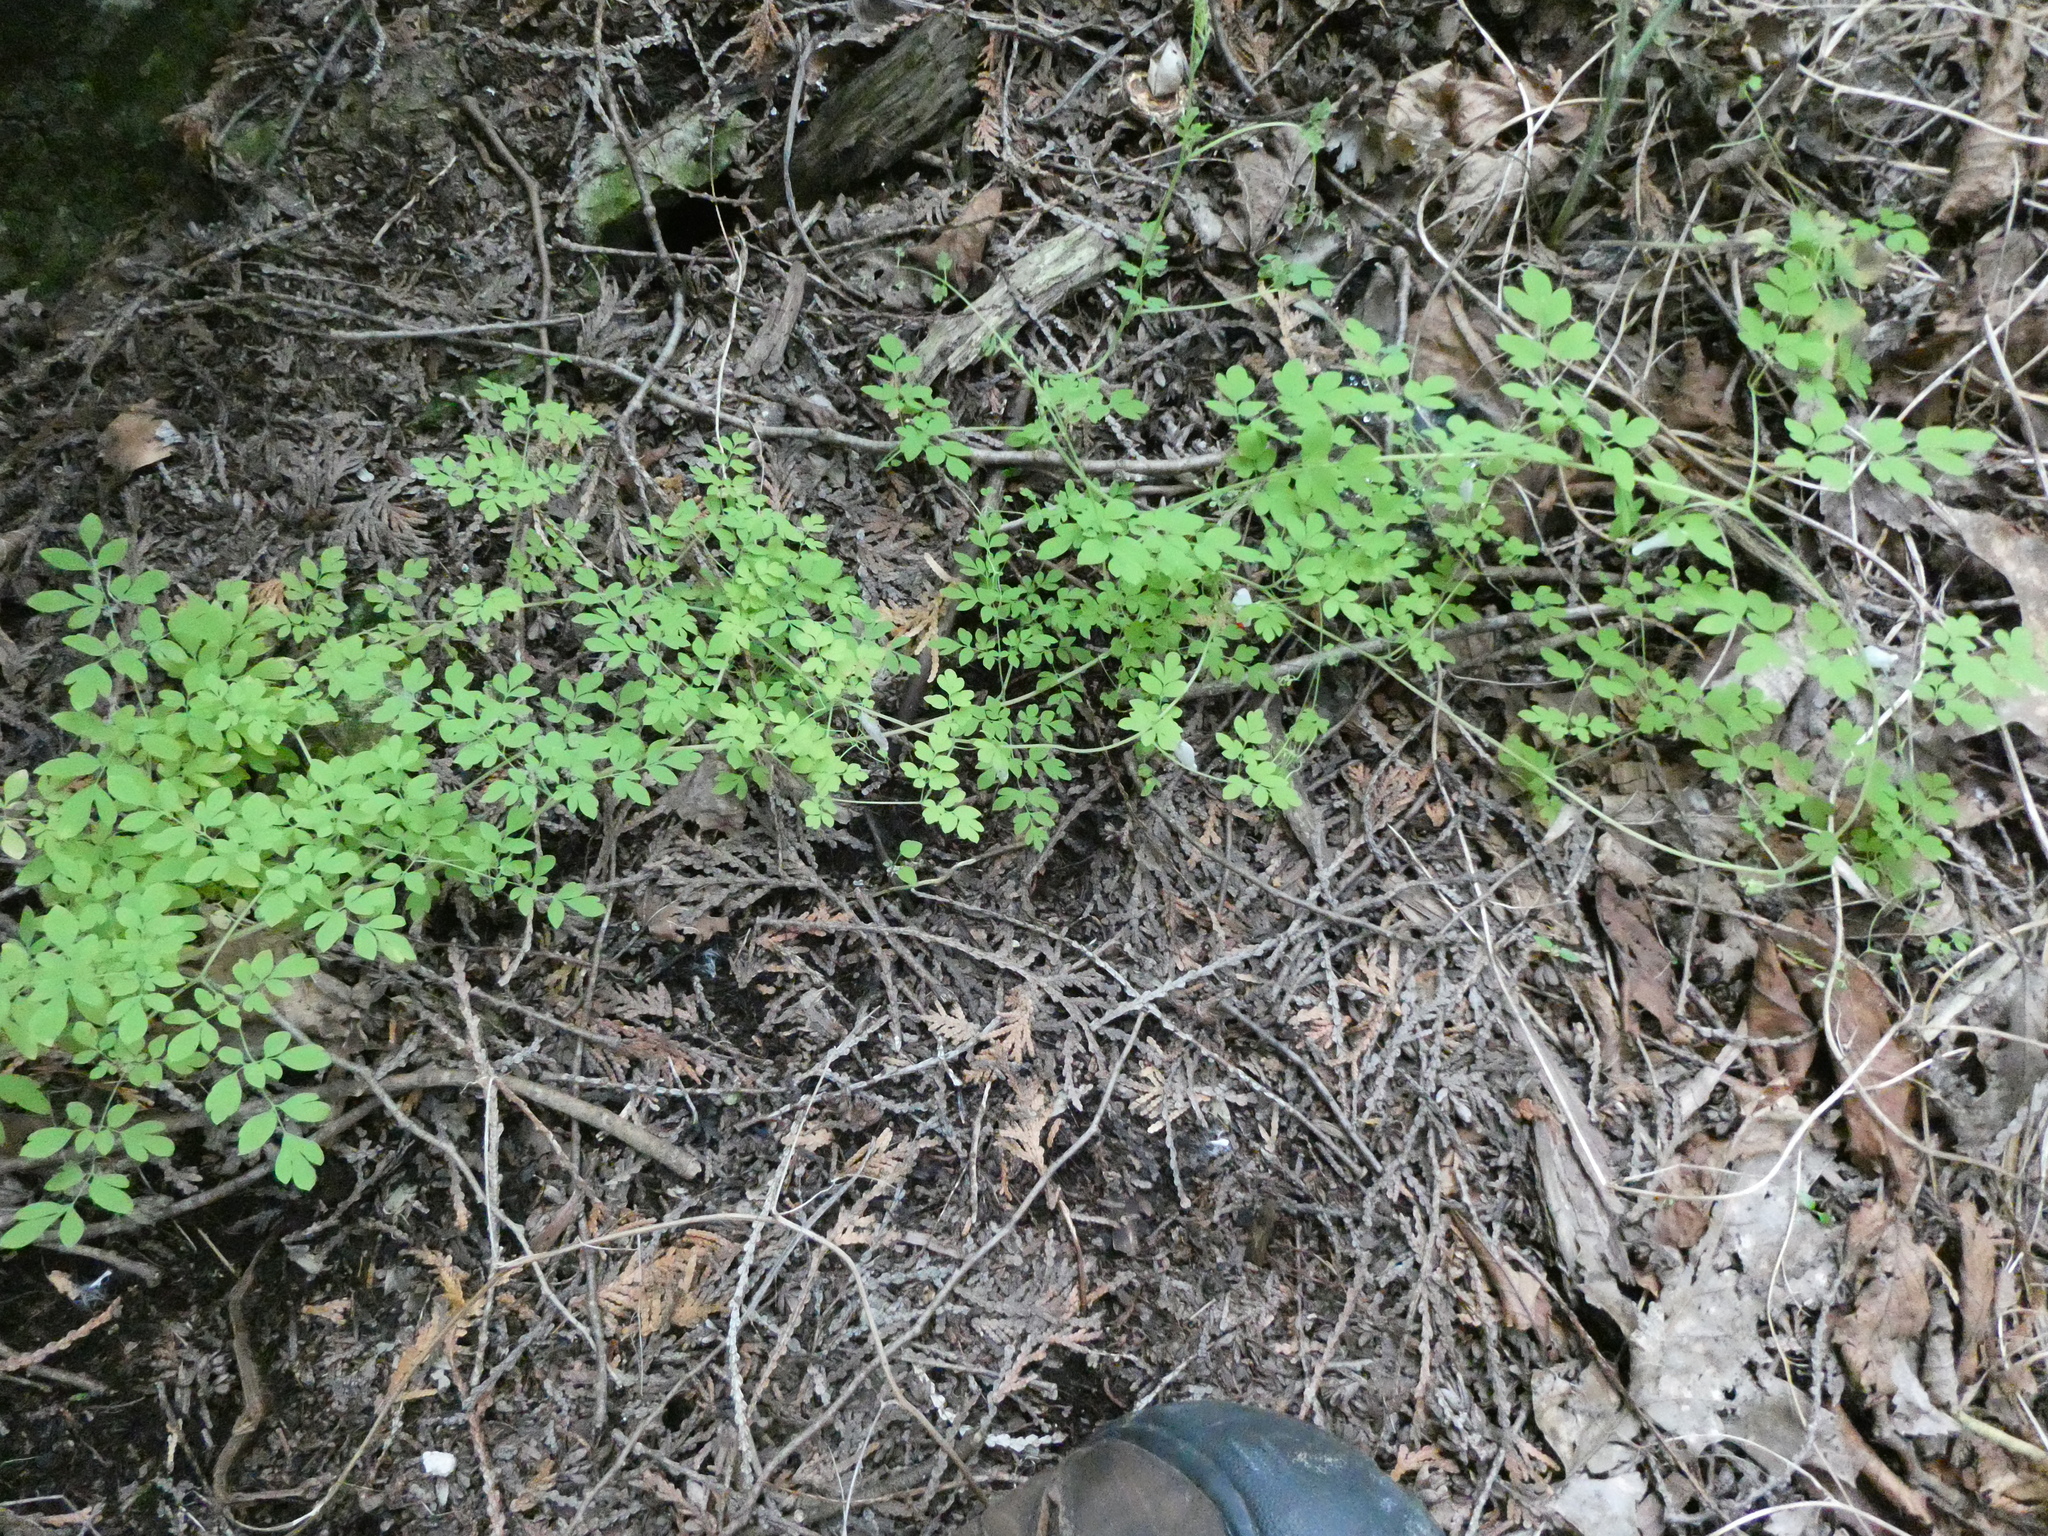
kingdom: Plantae
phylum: Tracheophyta
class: Magnoliopsida
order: Ranunculales
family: Papaveraceae
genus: Adlumia
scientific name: Adlumia fungosa
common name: Mountain-fringe
